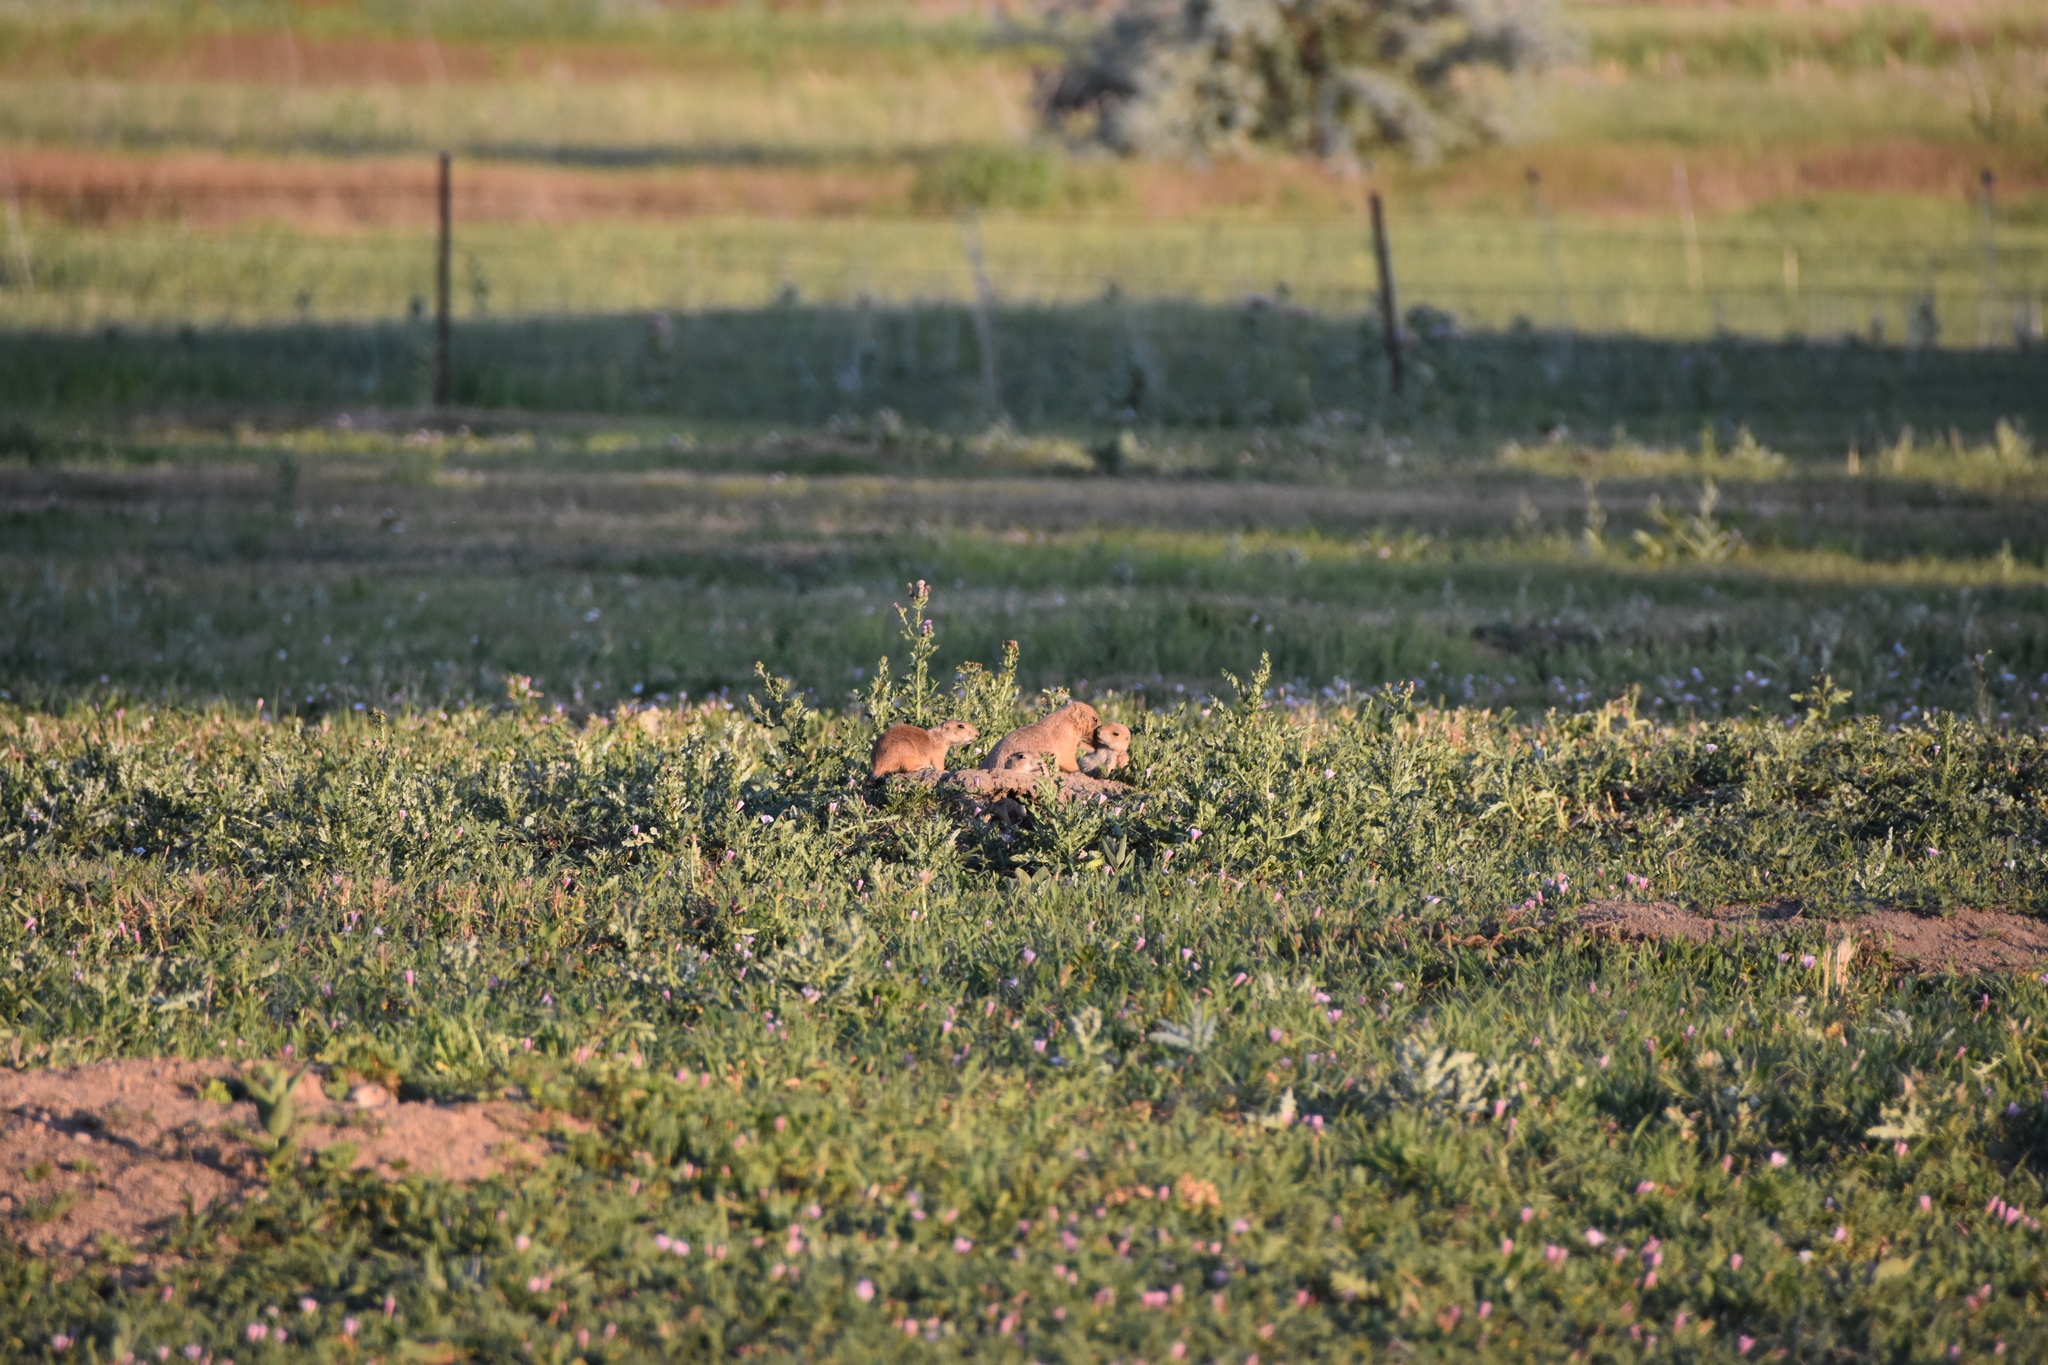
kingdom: Animalia
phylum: Chordata
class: Mammalia
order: Rodentia
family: Sciuridae
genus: Cynomys
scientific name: Cynomys ludovicianus
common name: Black-tailed prairie dog
